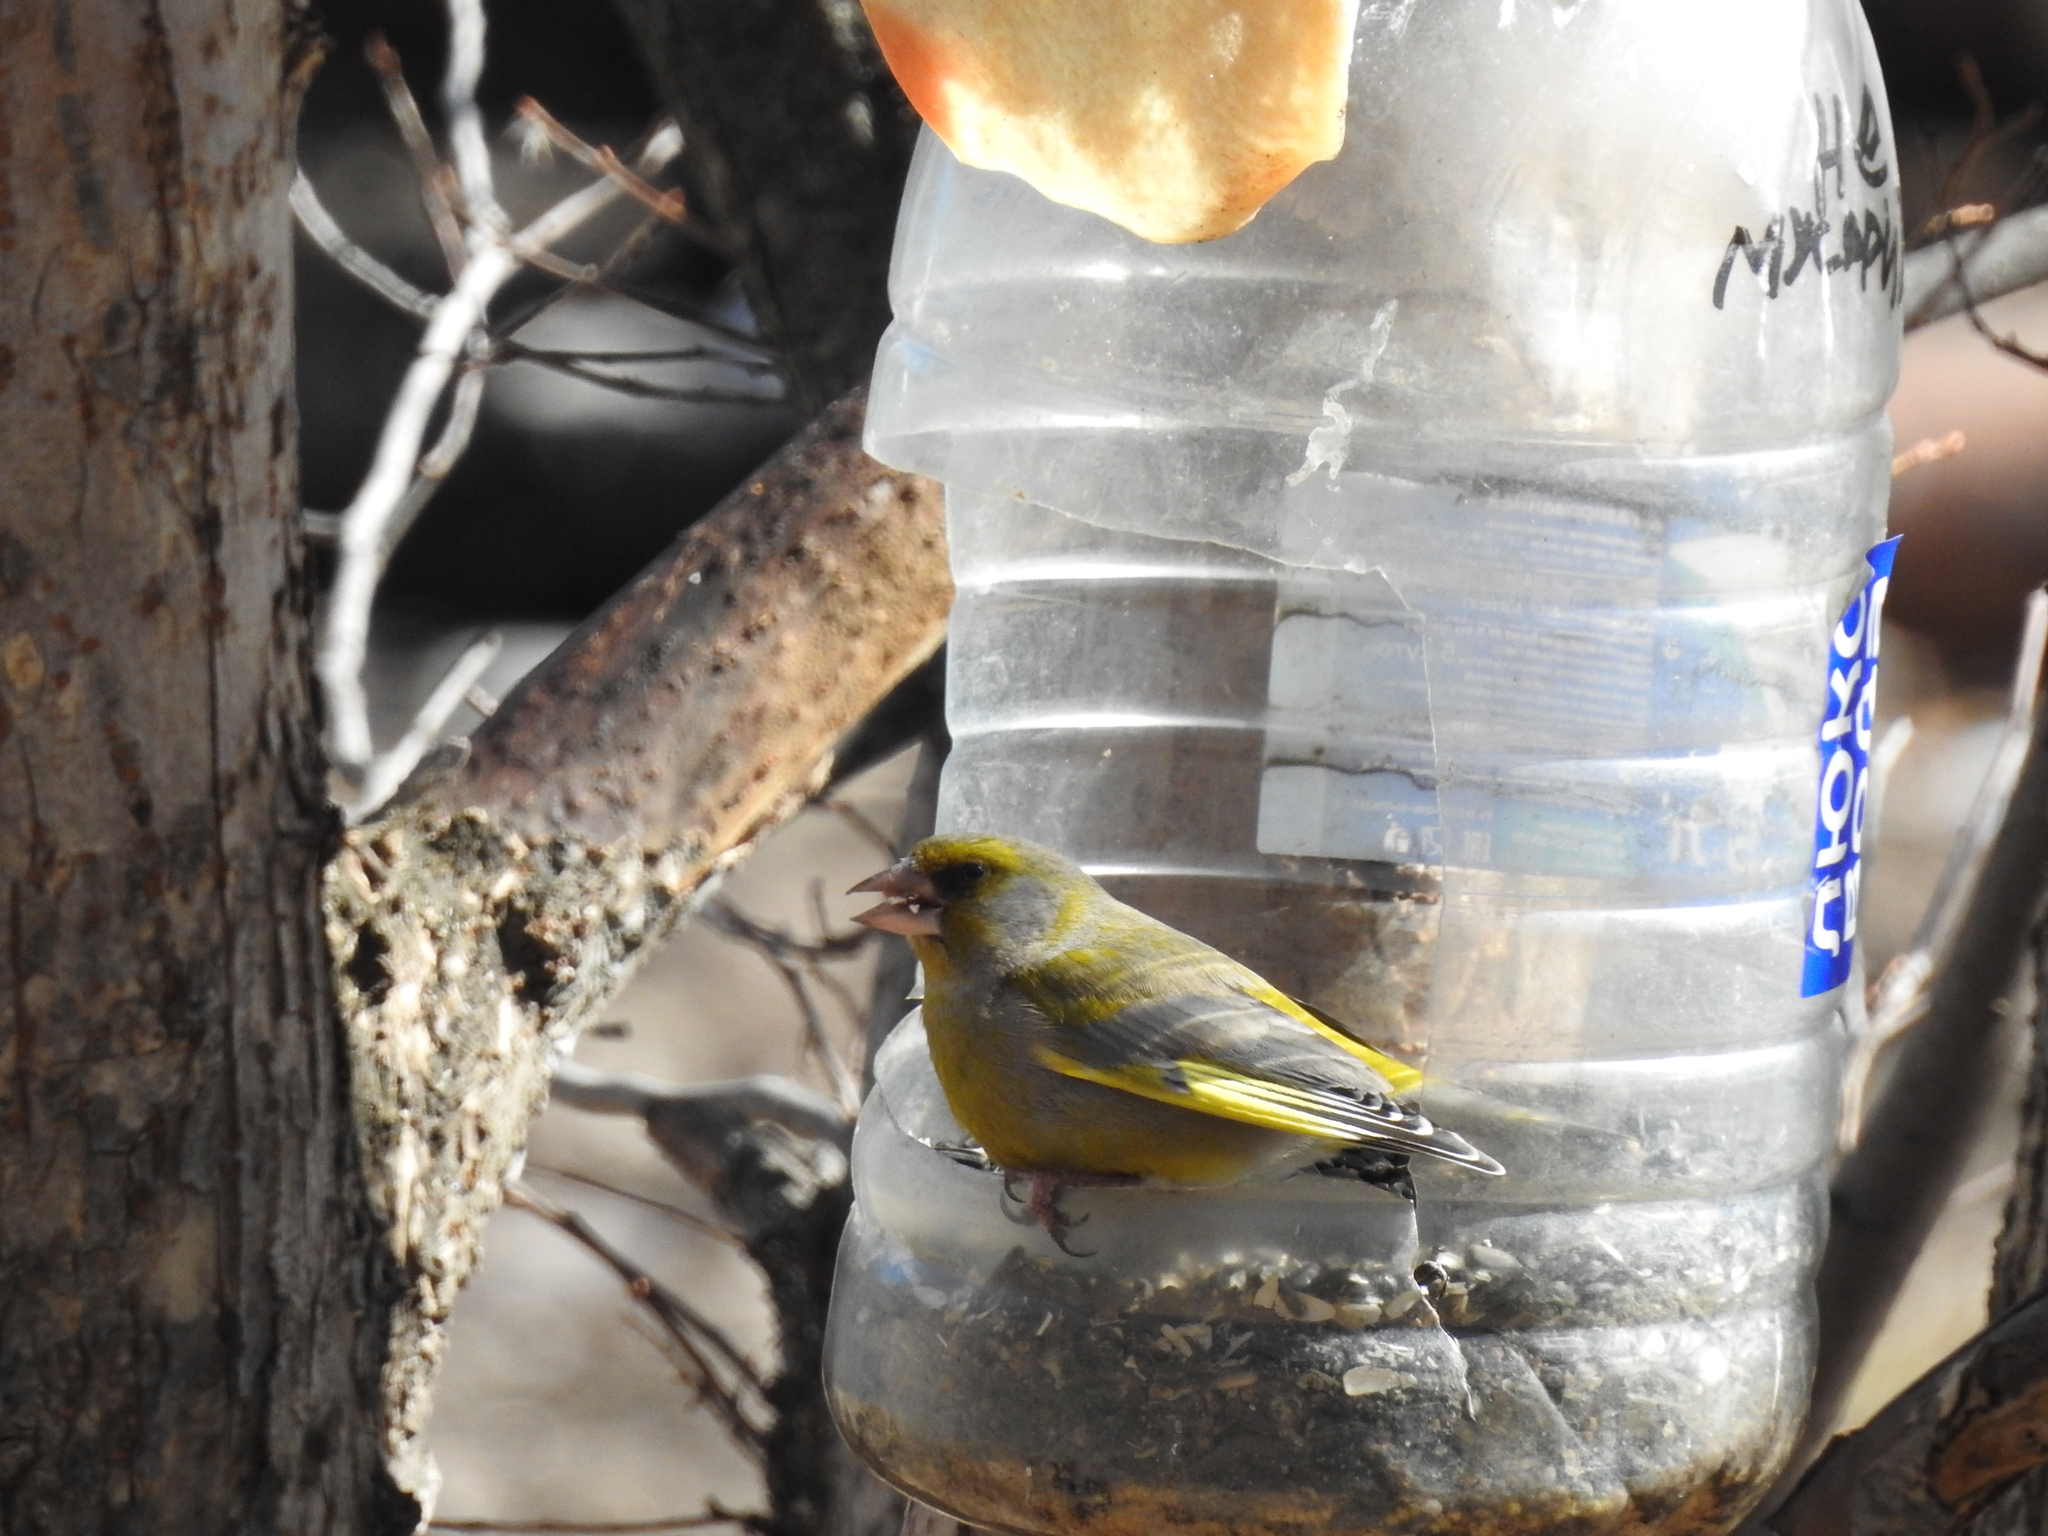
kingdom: Plantae
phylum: Tracheophyta
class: Liliopsida
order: Poales
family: Poaceae
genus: Chloris
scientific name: Chloris chloris
